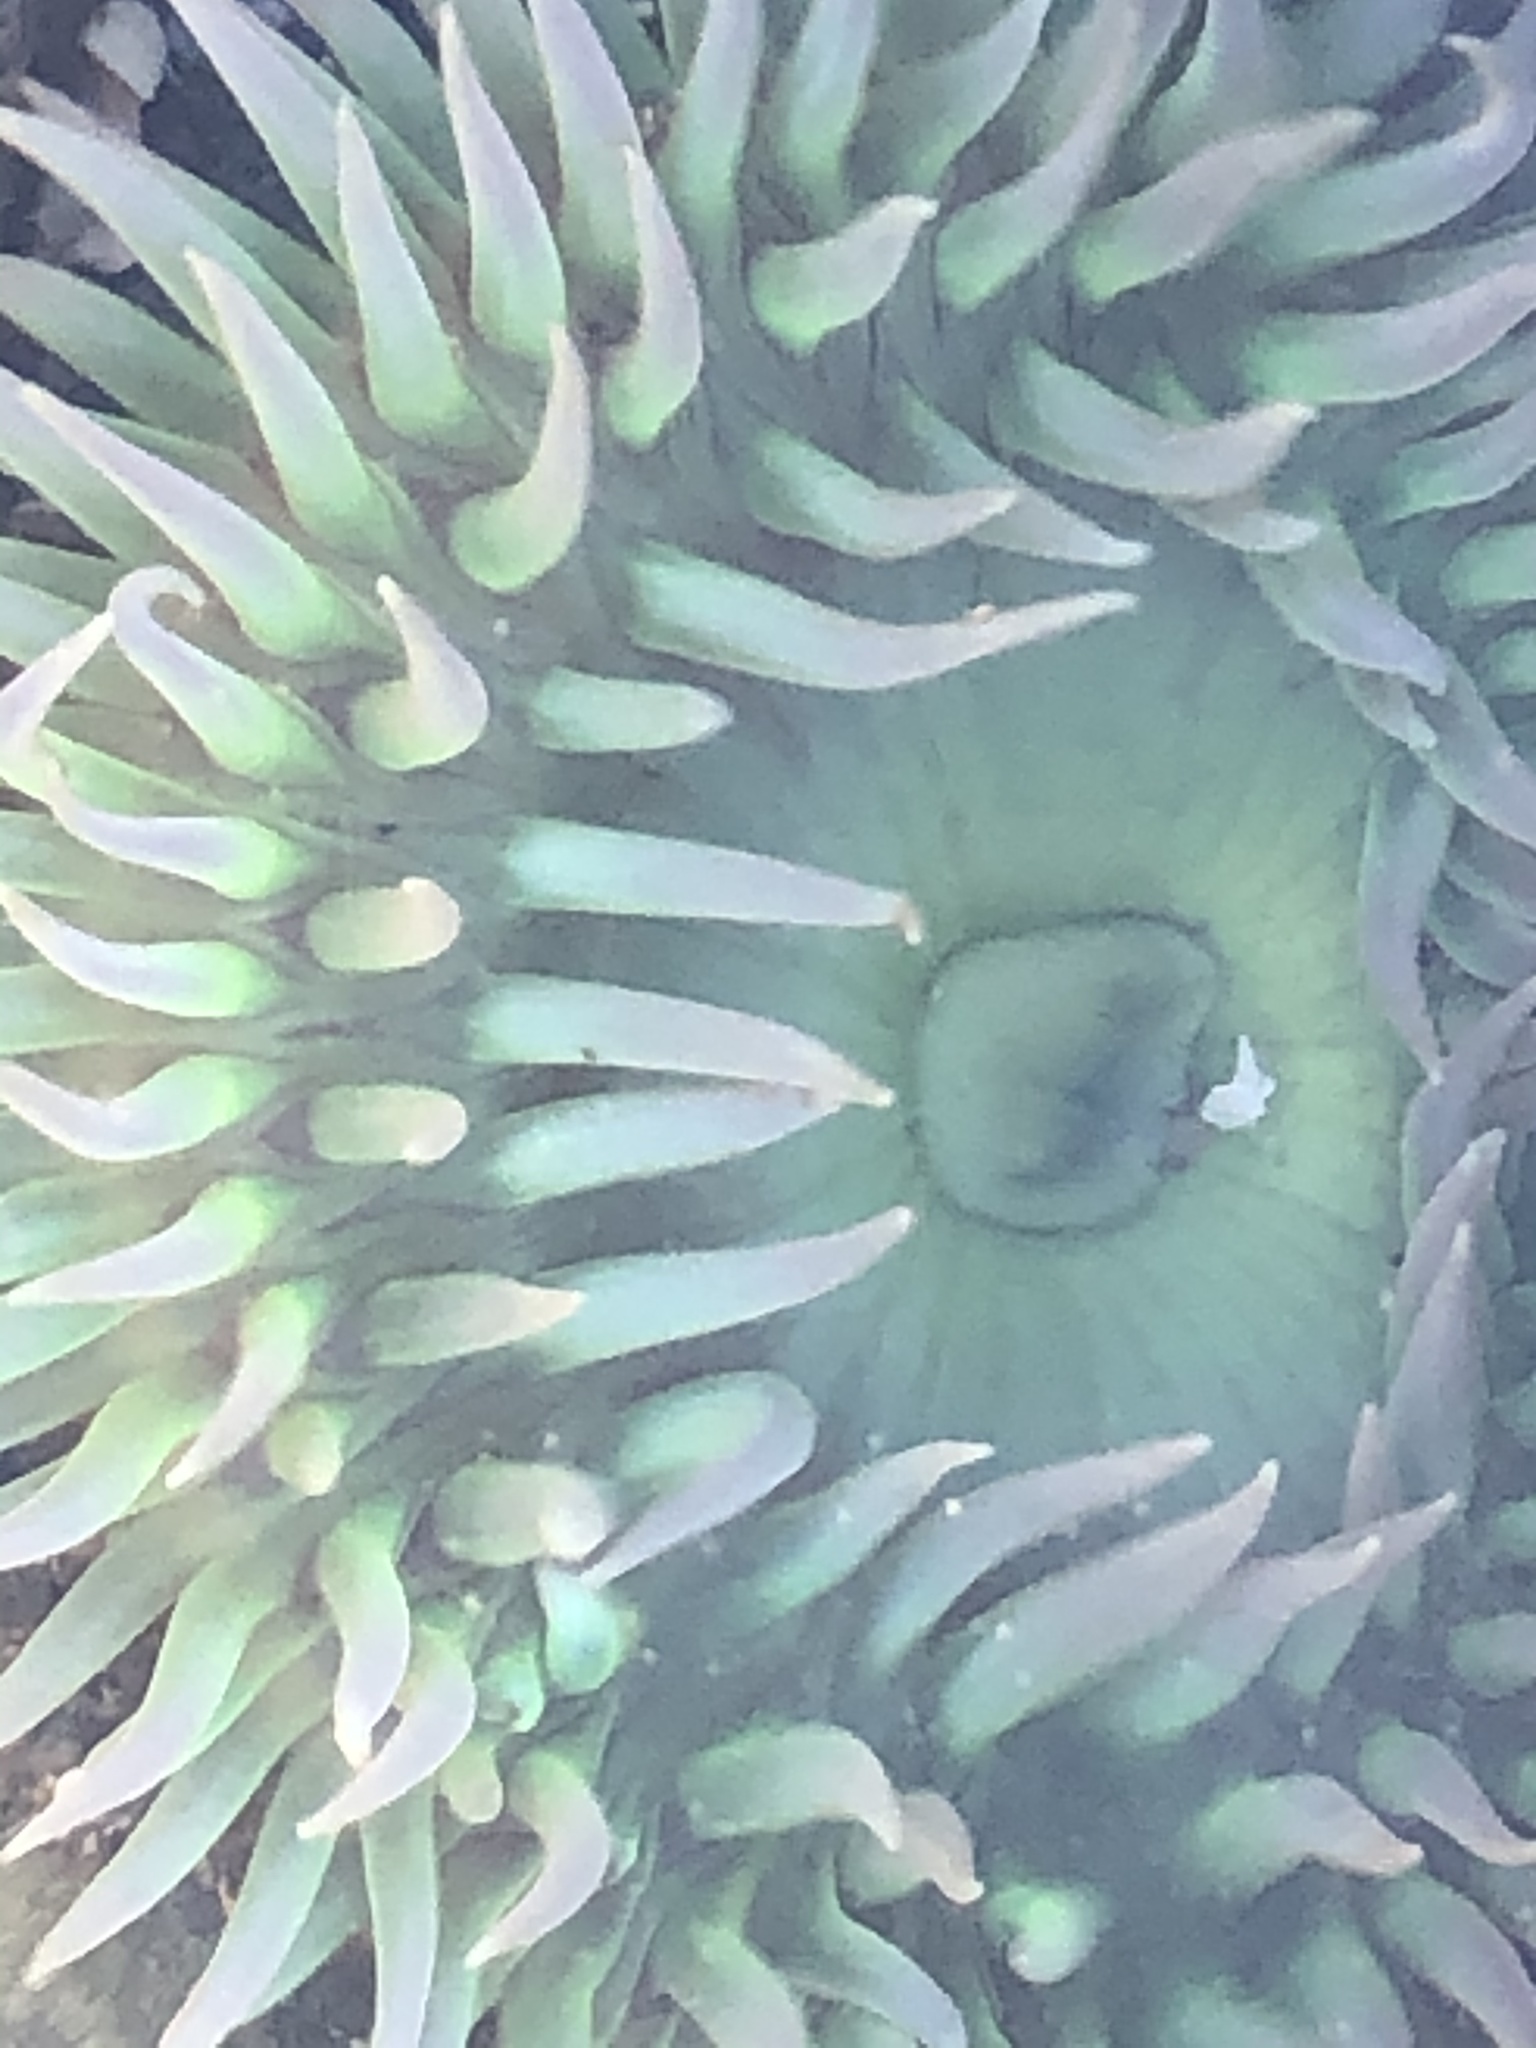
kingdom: Animalia
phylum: Cnidaria
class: Anthozoa
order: Actiniaria
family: Actiniidae
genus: Anthopleura
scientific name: Anthopleura xanthogrammica
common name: Giant green anemone
